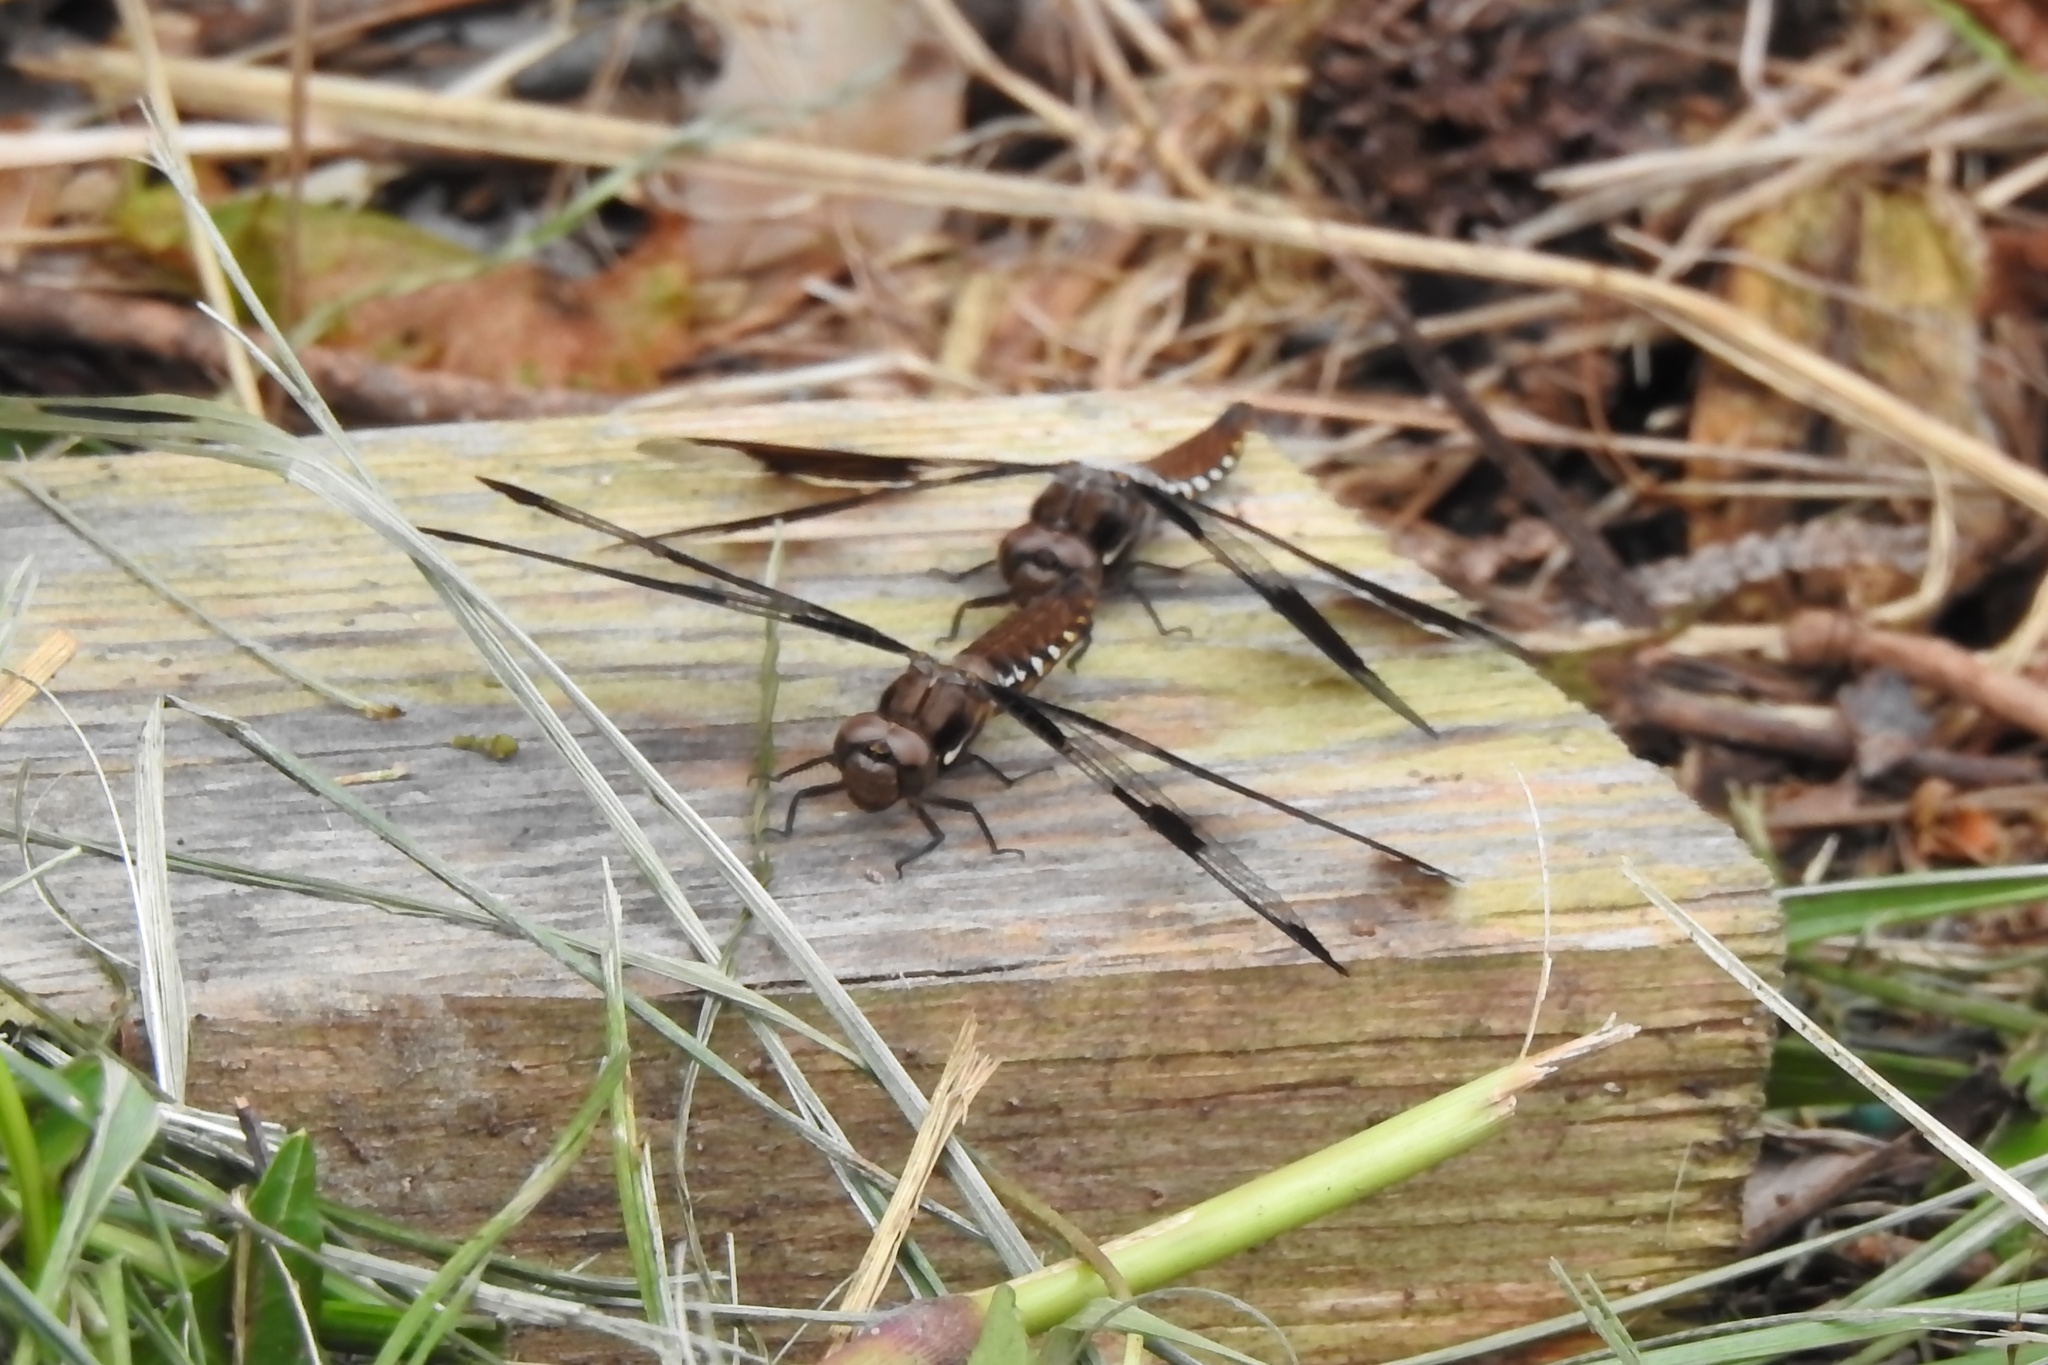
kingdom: Animalia
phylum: Arthropoda
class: Insecta
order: Odonata
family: Libellulidae
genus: Plathemis
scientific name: Plathemis lydia
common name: Common whitetail
